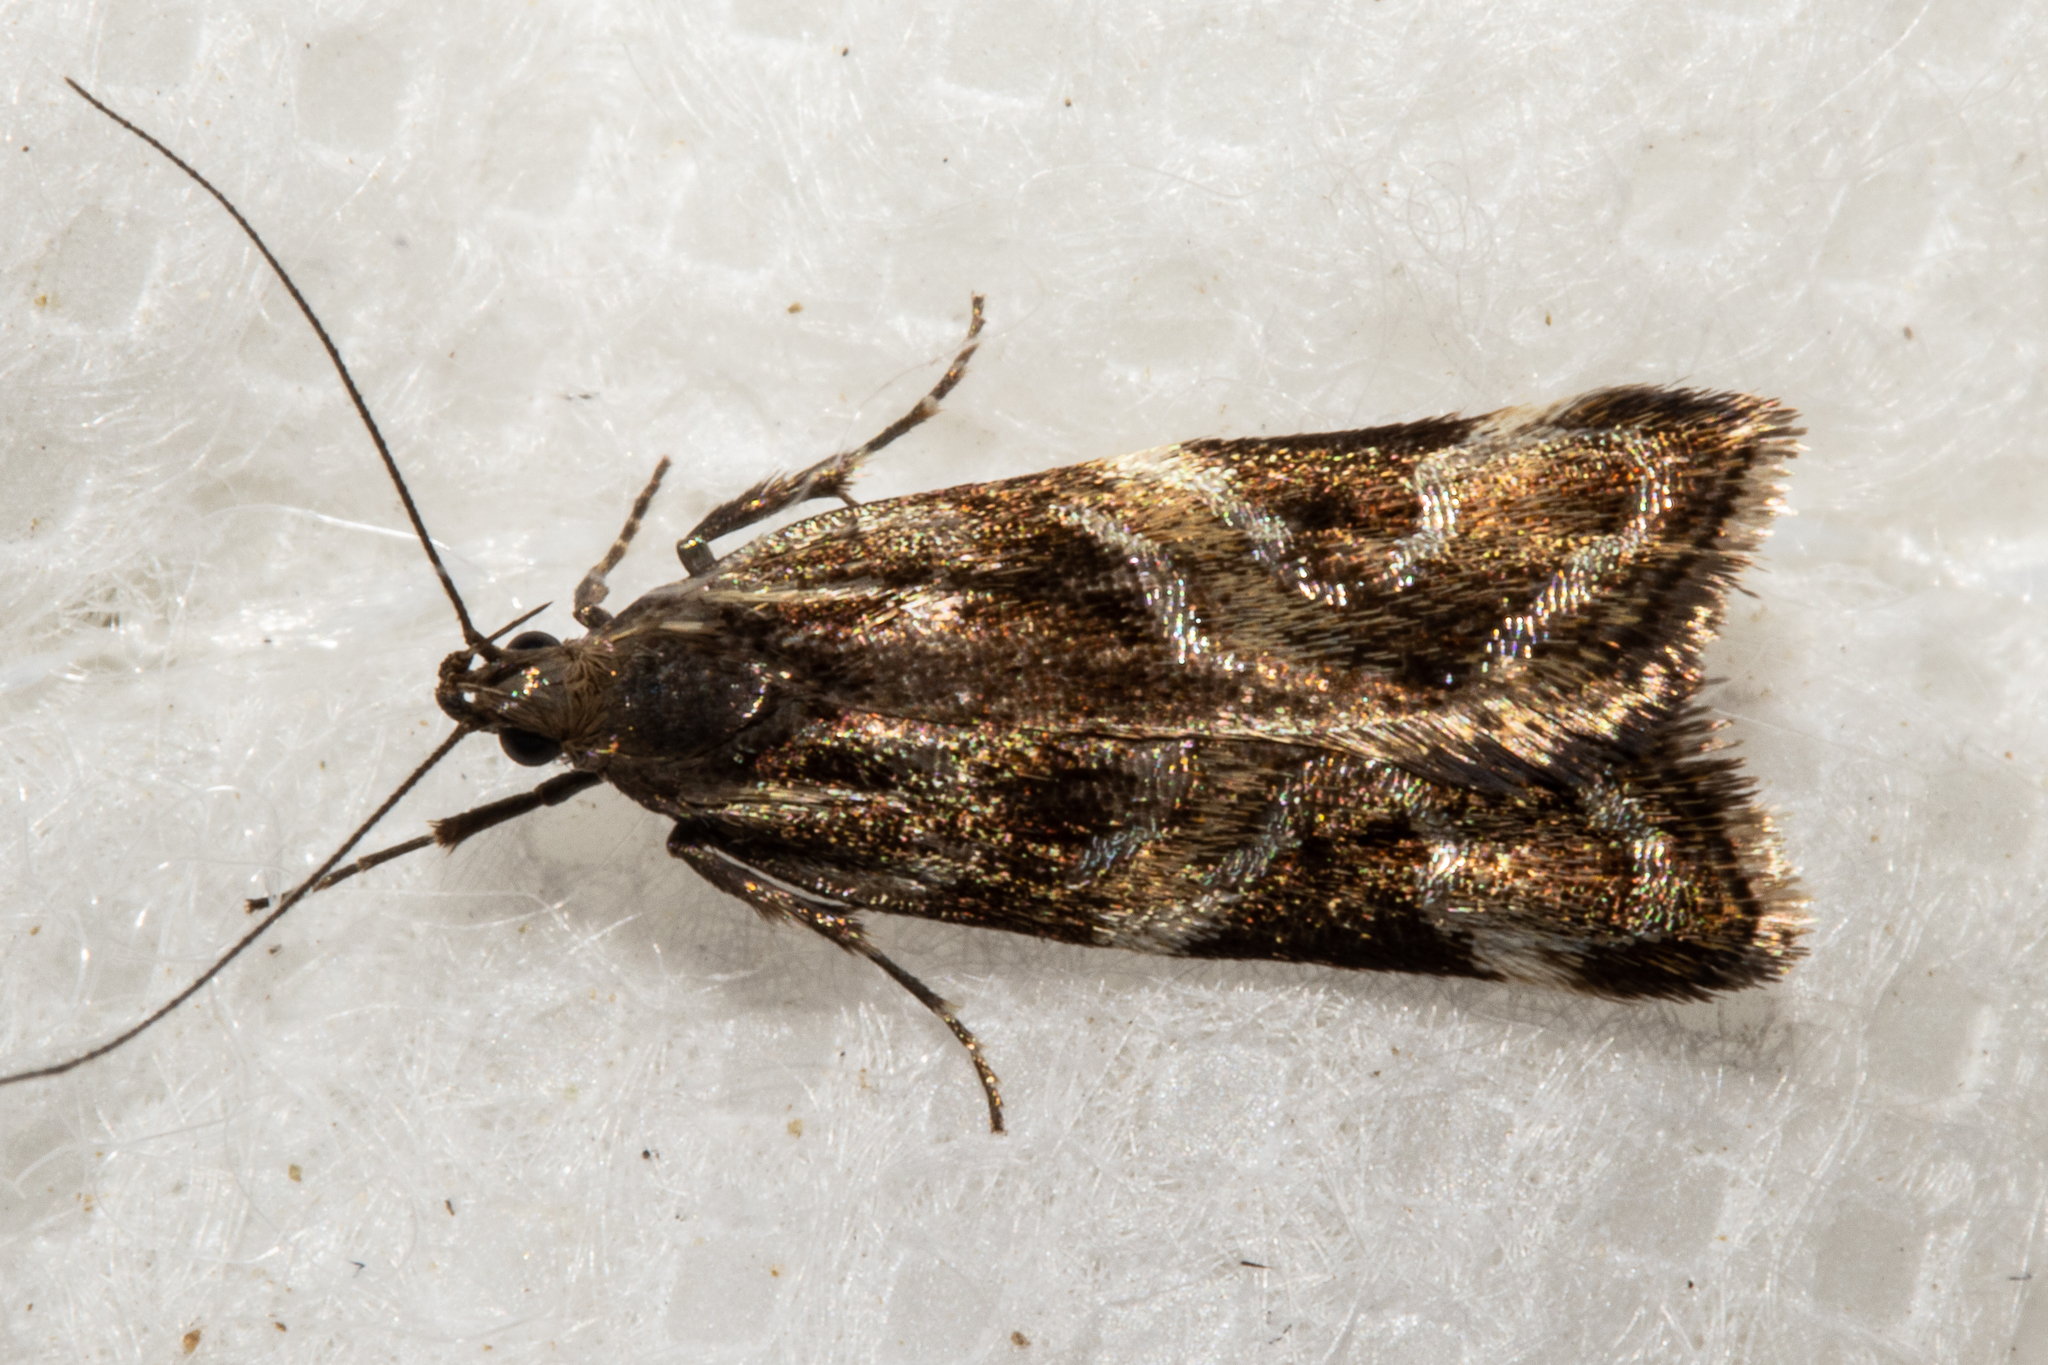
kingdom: Animalia
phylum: Arthropoda
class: Insecta
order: Lepidoptera
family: Oecophoridae
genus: Hierodoris
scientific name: Hierodoris s-fractum
